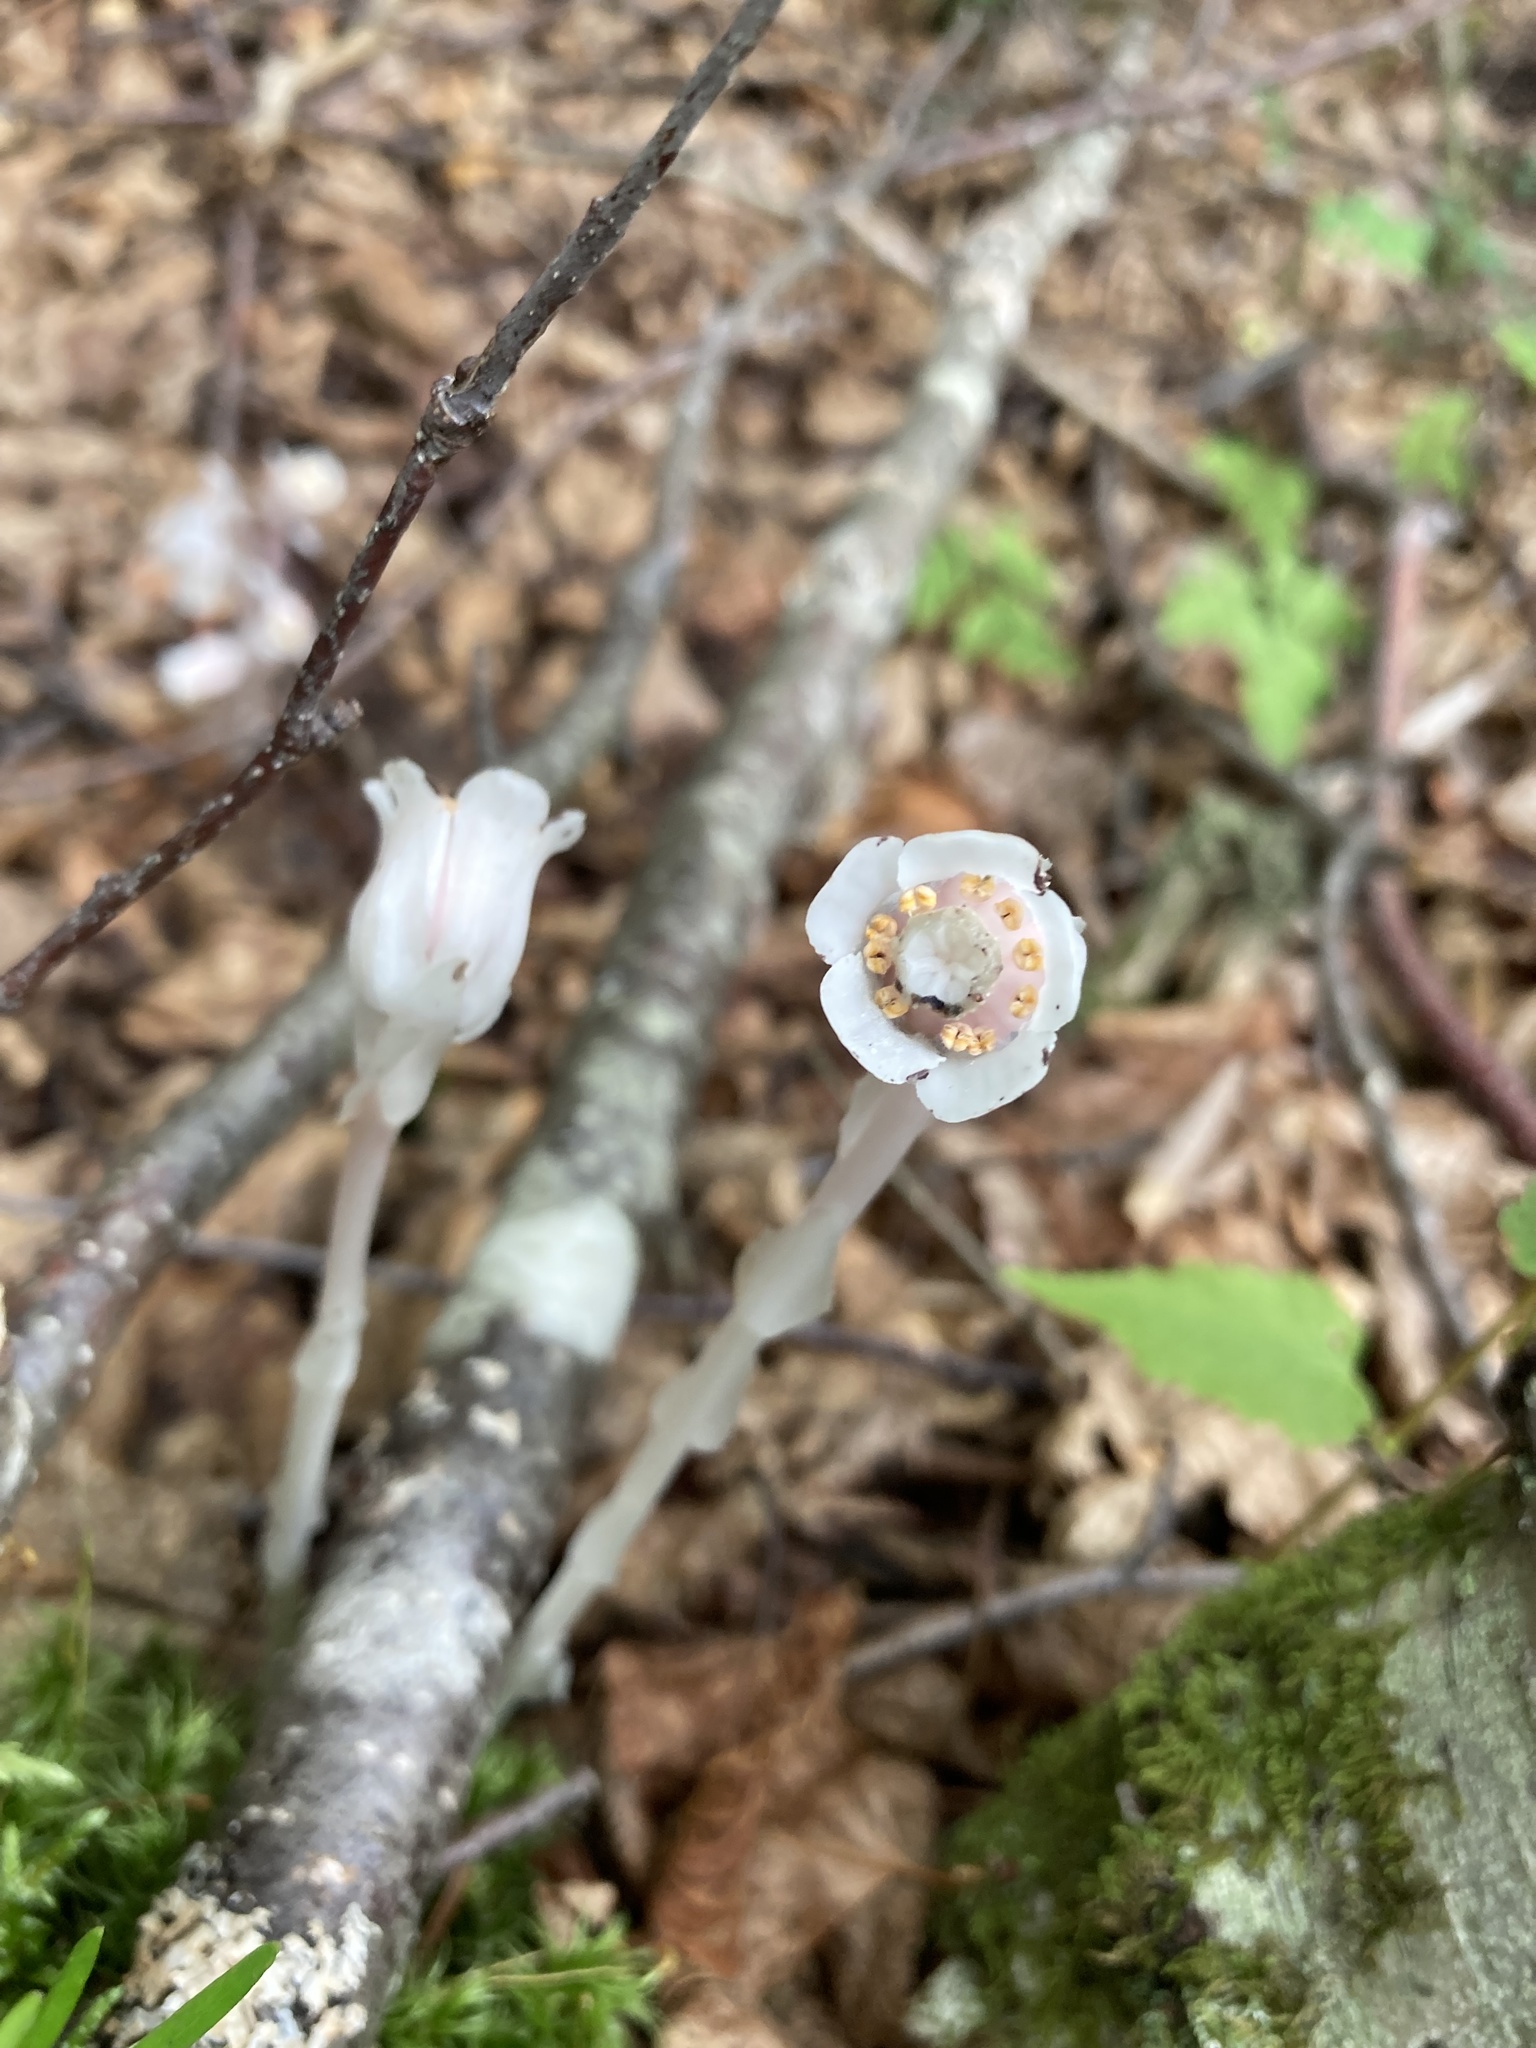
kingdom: Plantae
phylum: Tracheophyta
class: Magnoliopsida
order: Ericales
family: Ericaceae
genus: Monotropa
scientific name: Monotropa uniflora
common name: Convulsion root
